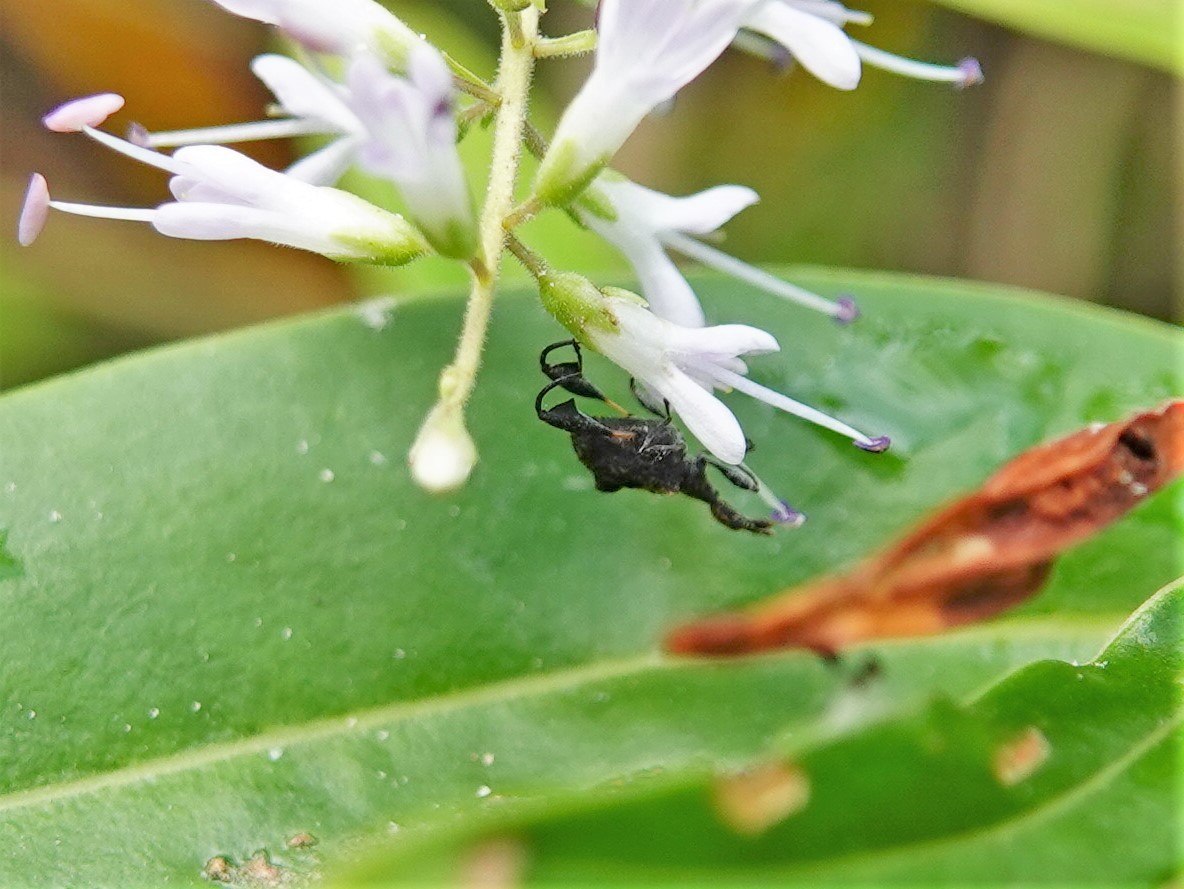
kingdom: Animalia
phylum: Arthropoda
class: Insecta
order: Coleoptera
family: Curculionidae
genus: Stephanorhynchus
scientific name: Stephanorhynchus lawsoni
